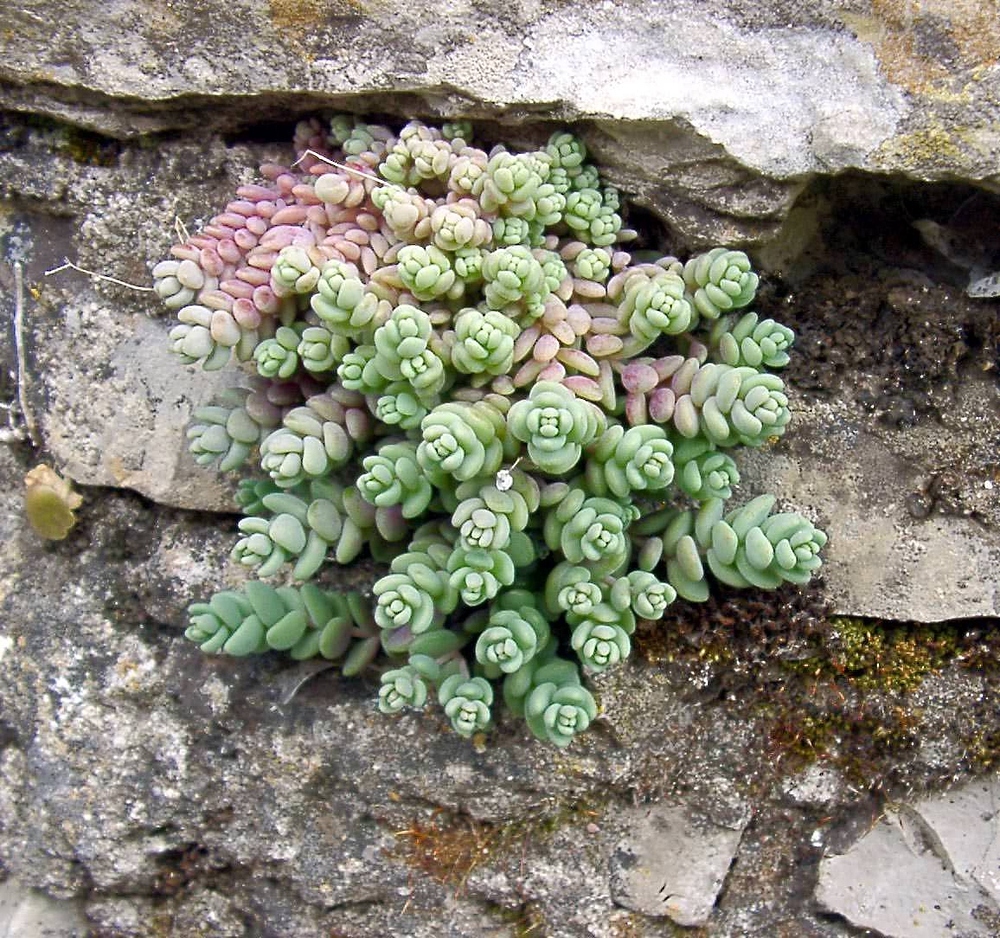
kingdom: Plantae
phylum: Tracheophyta
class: Magnoliopsida
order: Saxifragales
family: Crassulaceae
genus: Sedum
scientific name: Sedum dasyphyllum
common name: Thick-leaf stonecrop
